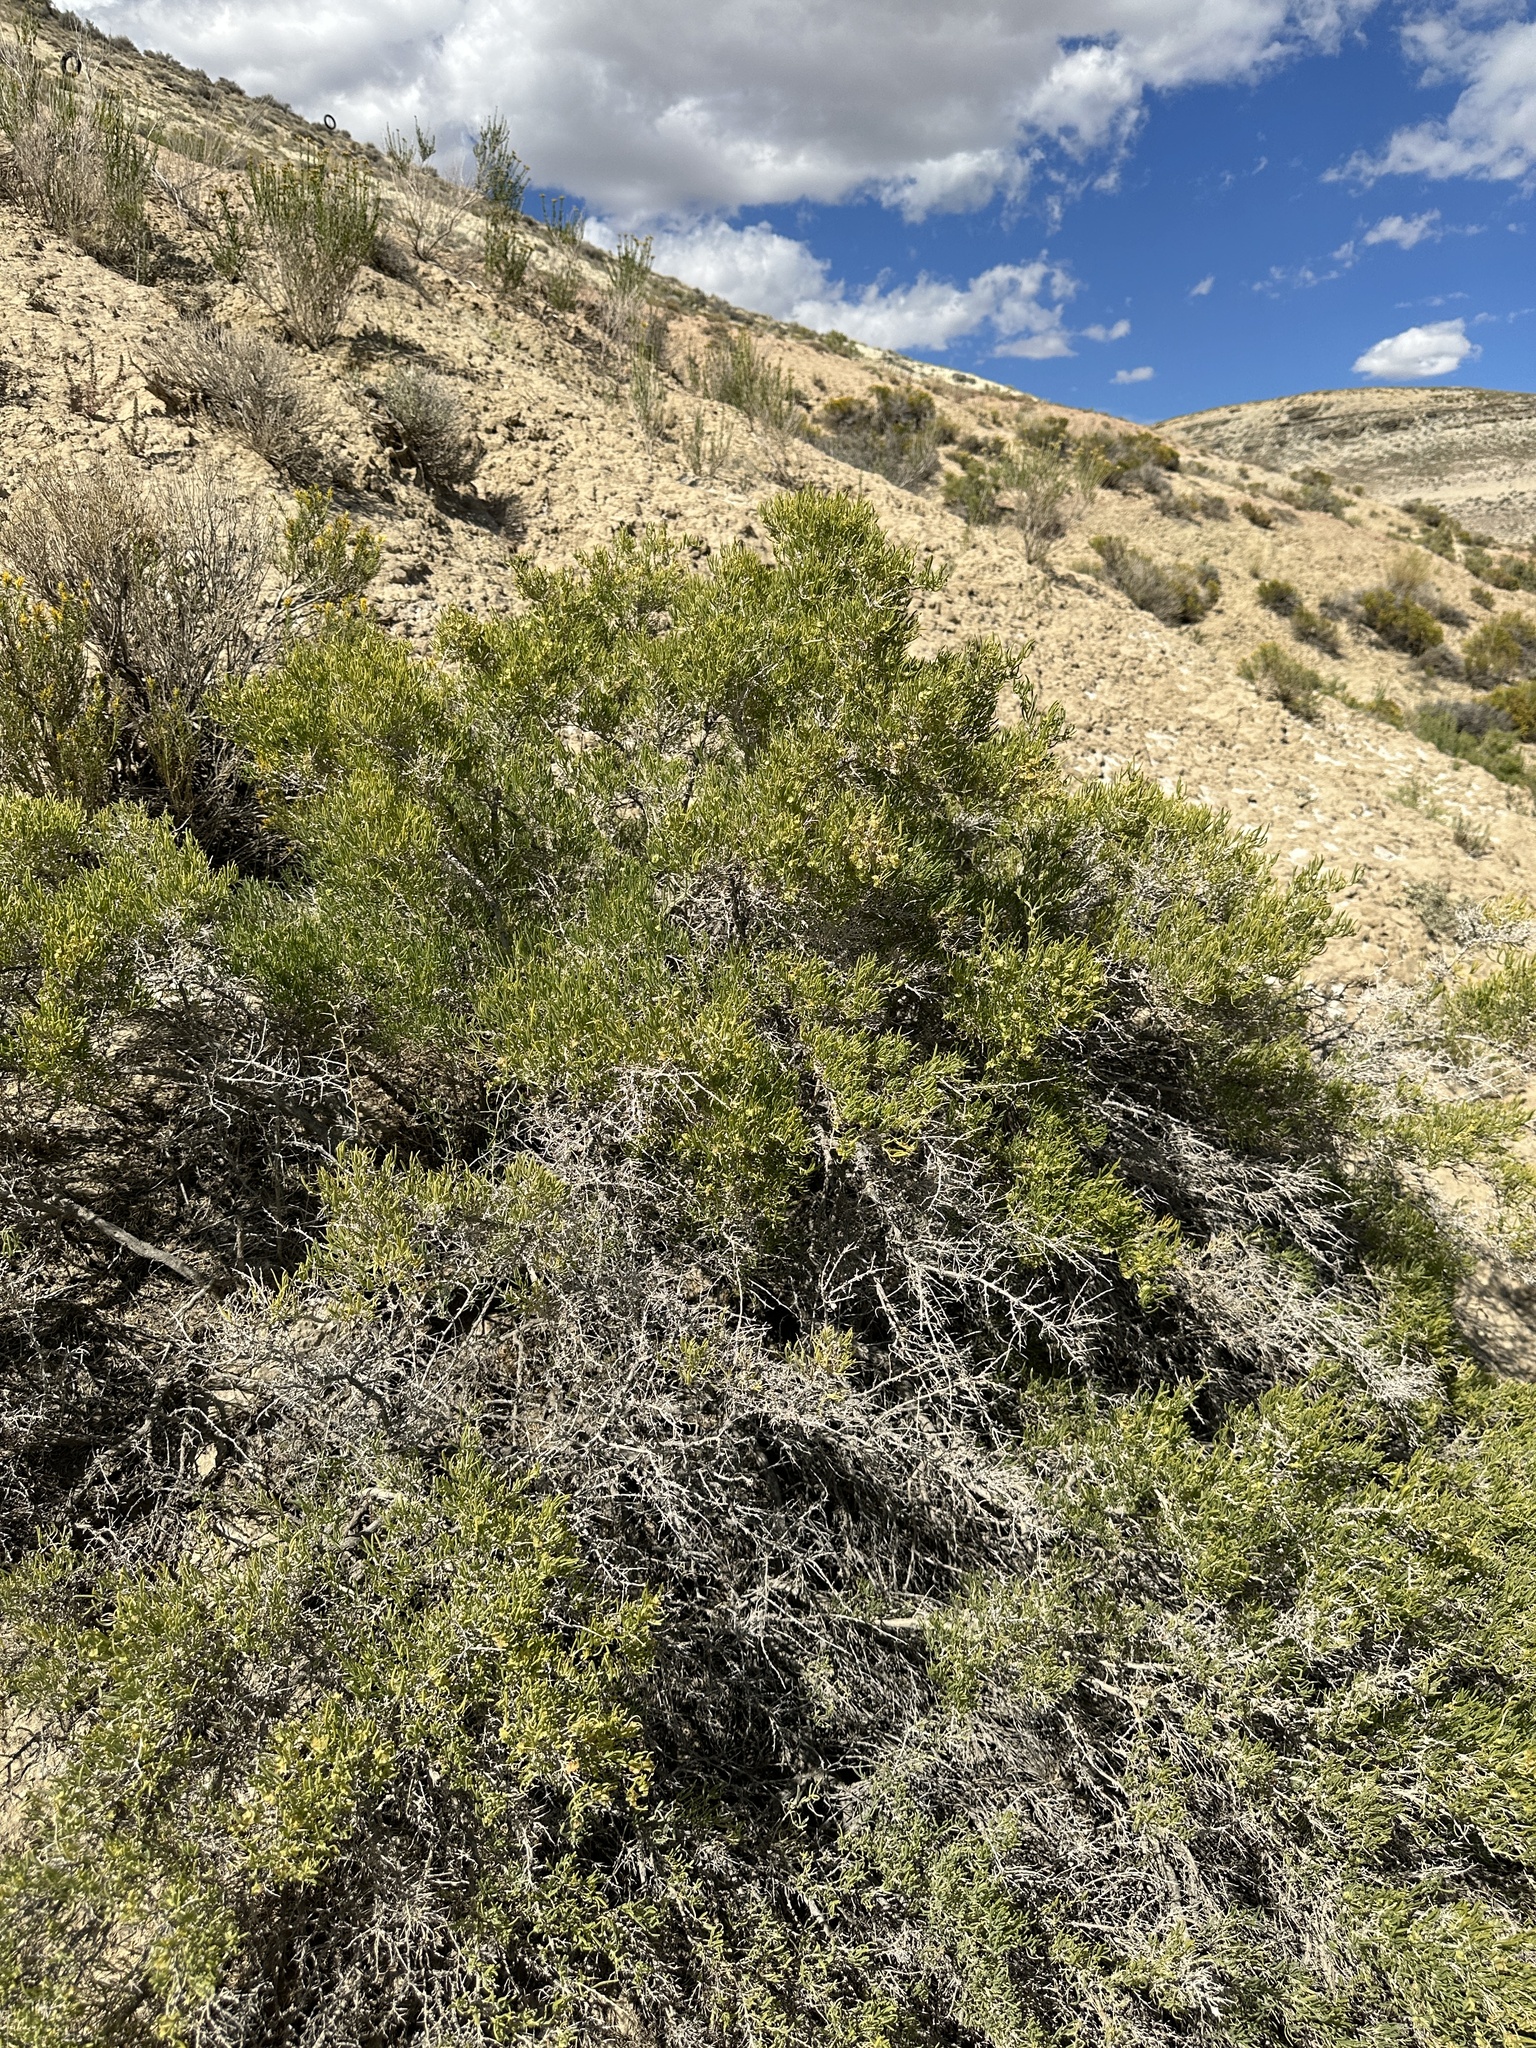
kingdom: Plantae
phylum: Tracheophyta
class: Magnoliopsida
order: Caryophyllales
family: Sarcobataceae
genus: Sarcobatus
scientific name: Sarcobatus vermiculatus
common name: Greasewood
